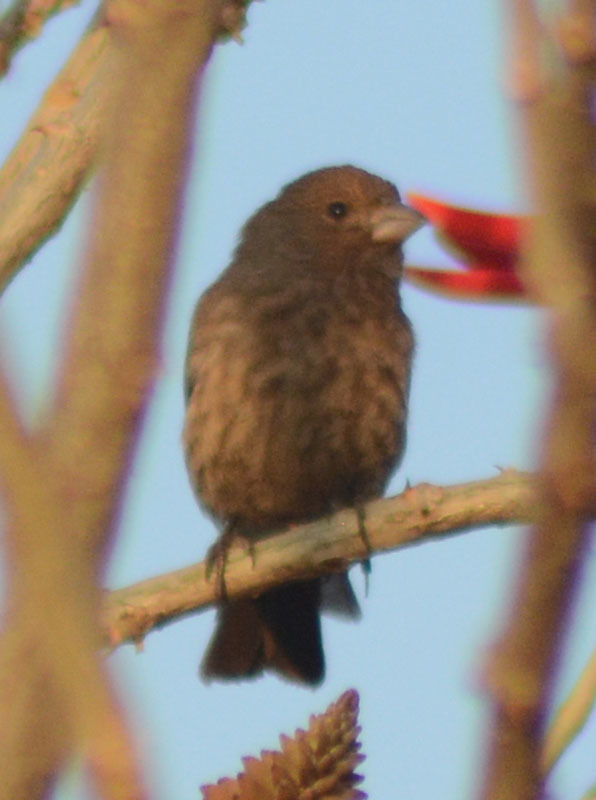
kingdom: Animalia
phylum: Chordata
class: Aves
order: Passeriformes
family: Fringillidae
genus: Haemorhous
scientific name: Haemorhous mexicanus
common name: House finch
